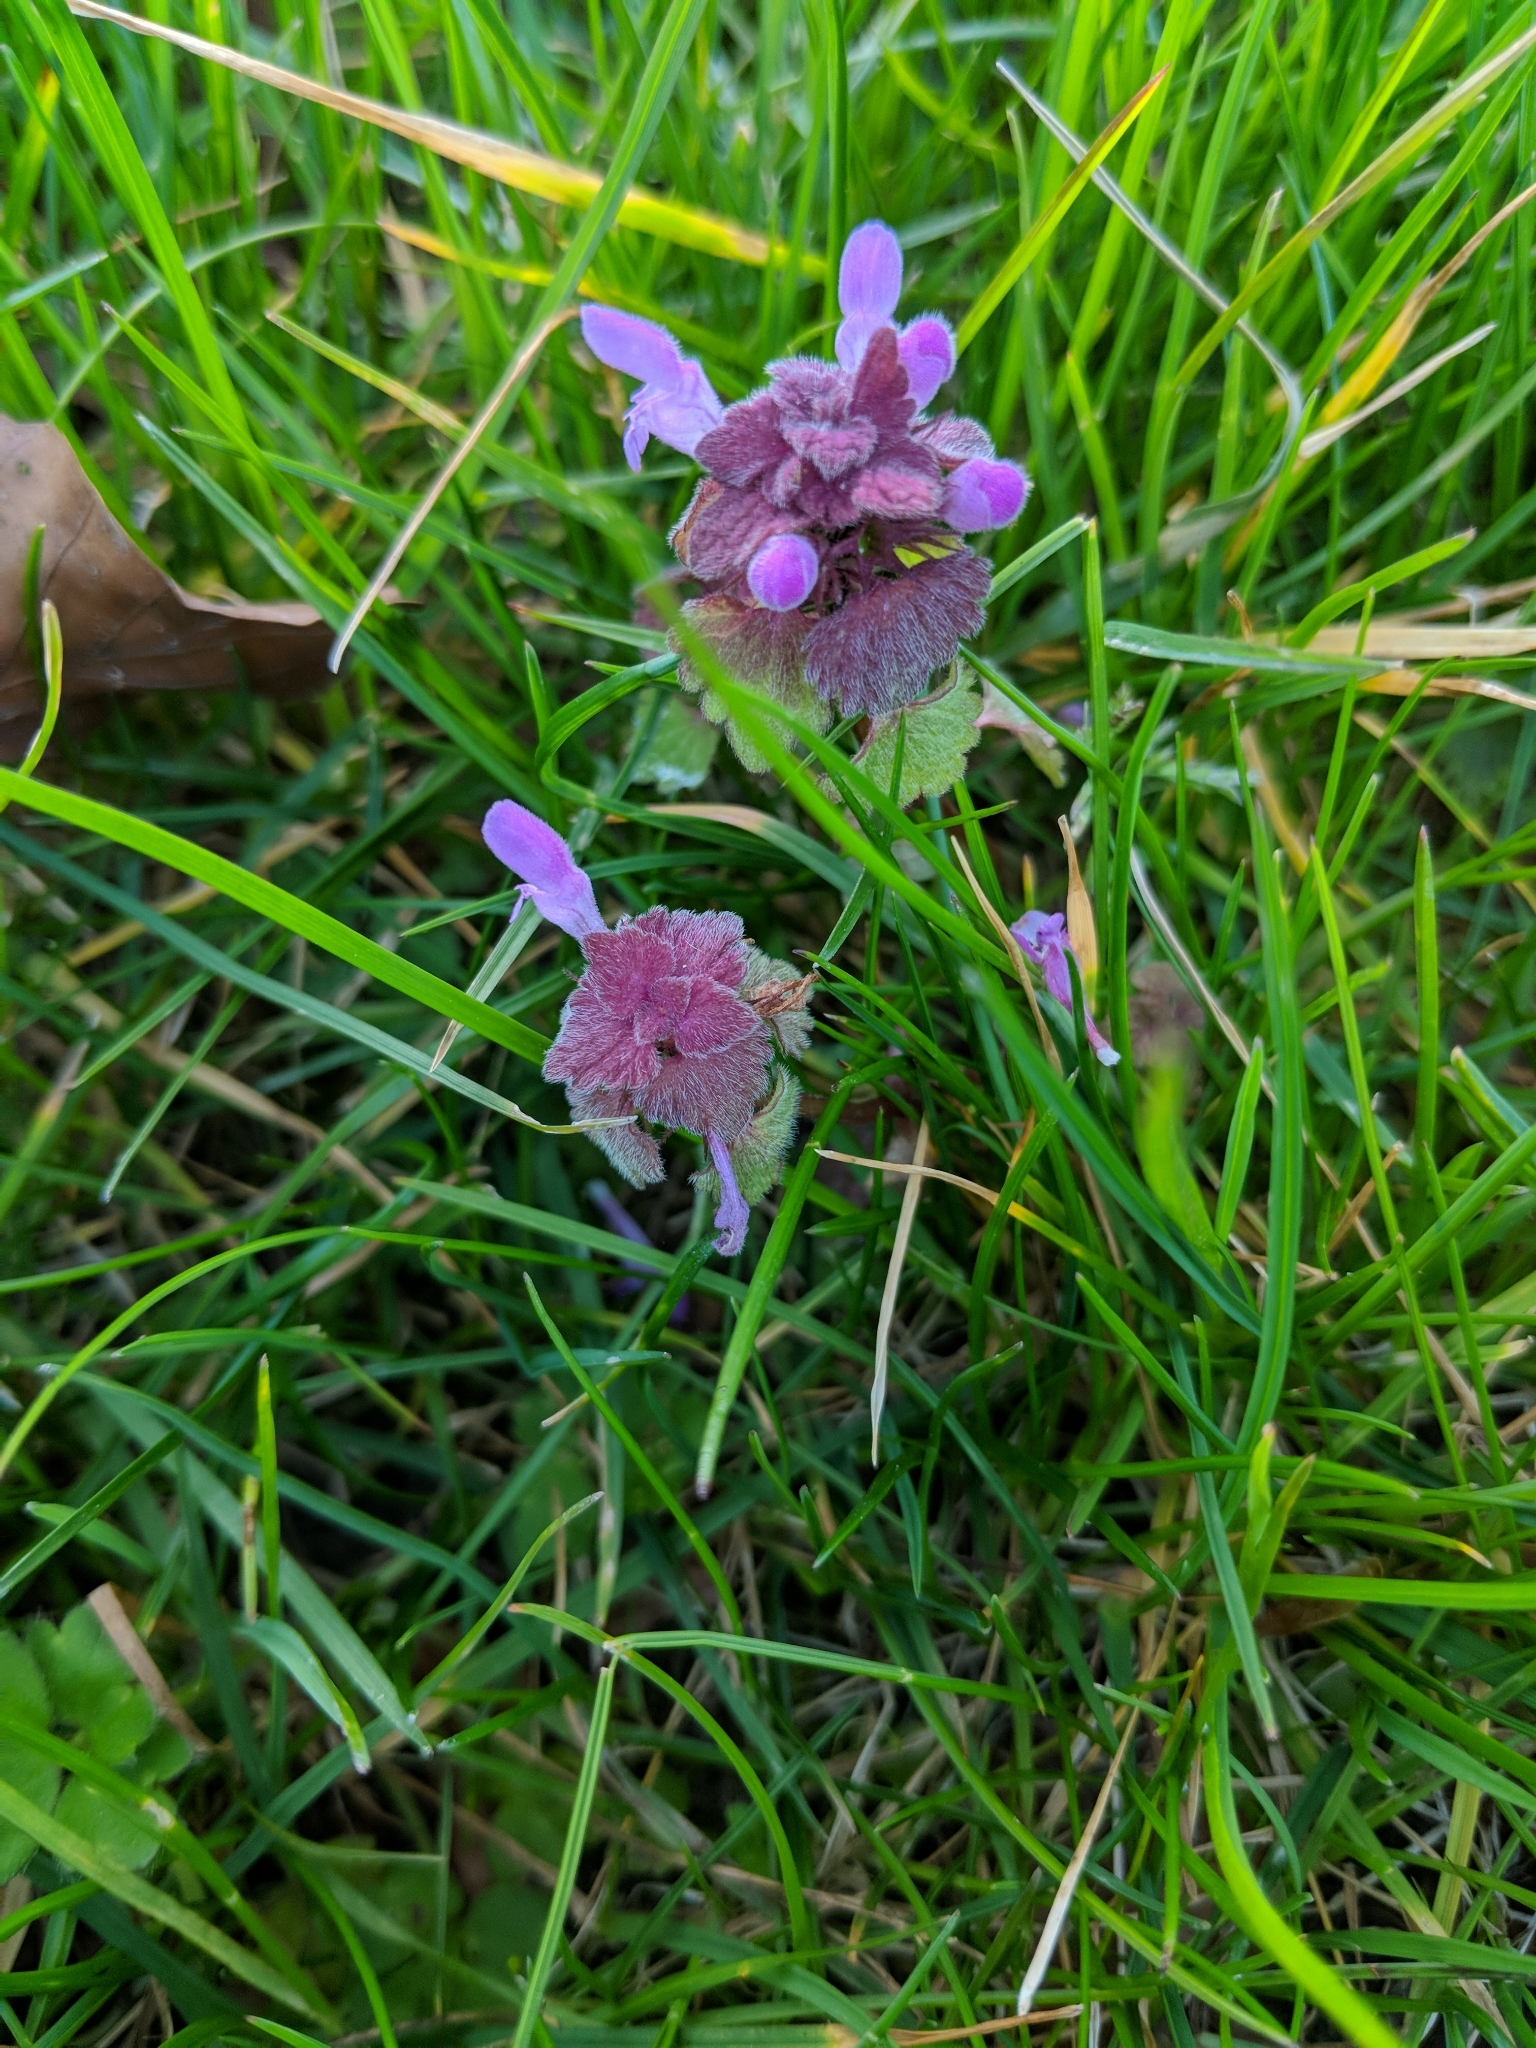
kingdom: Plantae
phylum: Tracheophyta
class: Magnoliopsida
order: Lamiales
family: Lamiaceae
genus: Lamium
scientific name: Lamium purpureum
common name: Red dead-nettle
